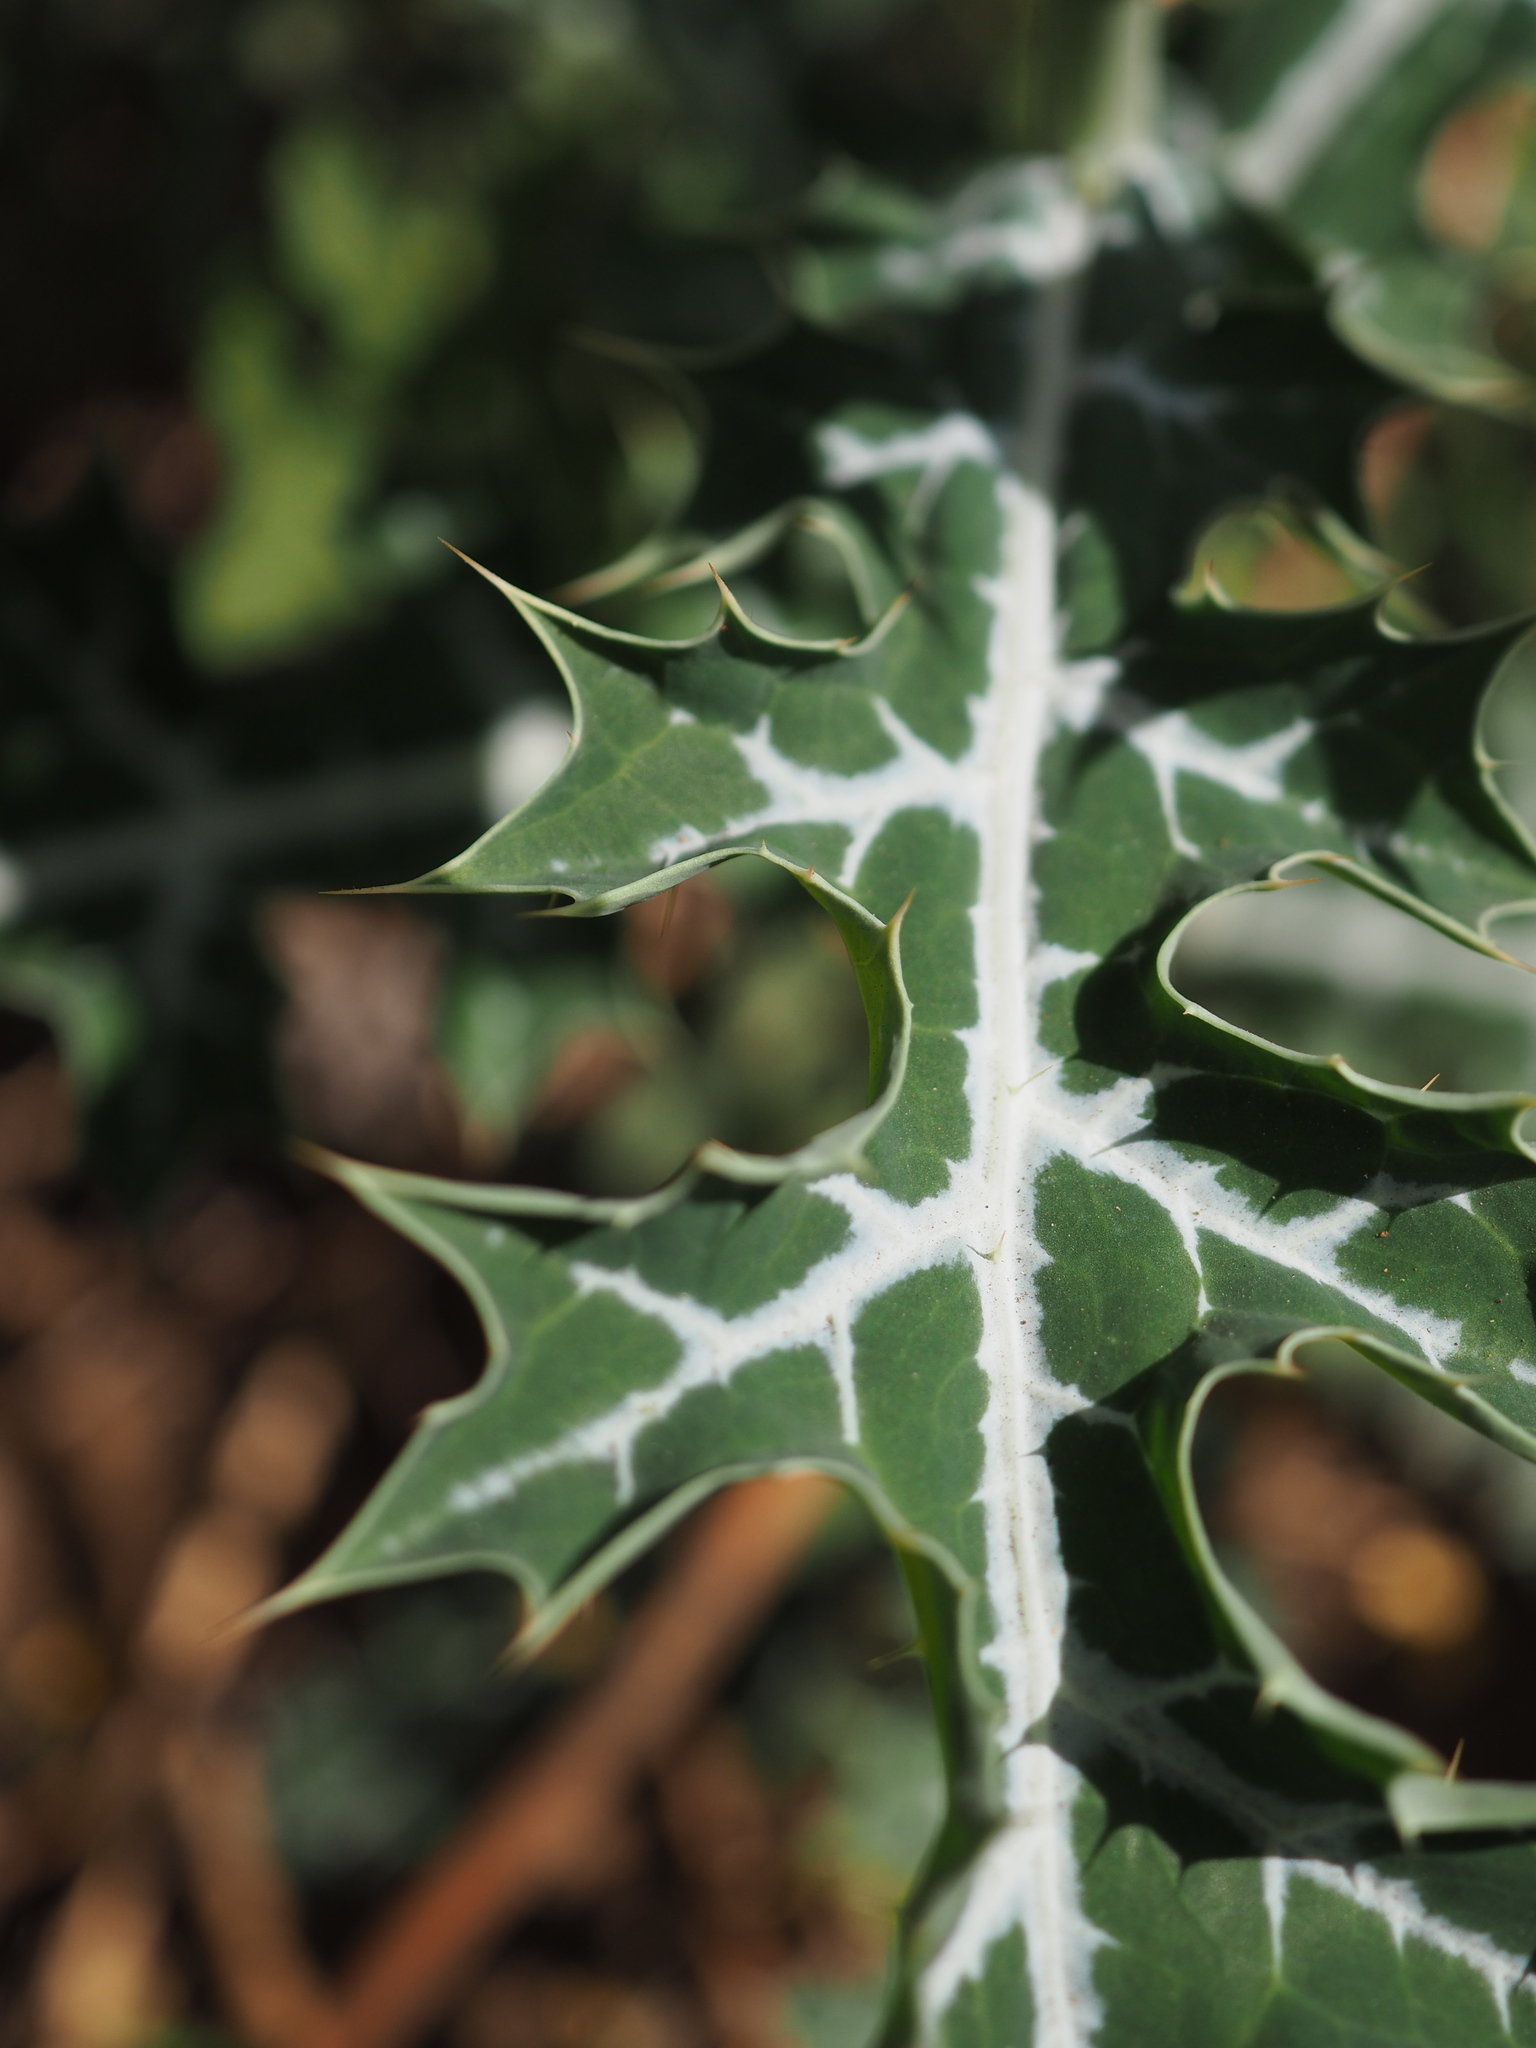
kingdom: Plantae
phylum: Tracheophyta
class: Magnoliopsida
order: Ranunculales
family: Papaveraceae
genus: Argemone
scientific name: Argemone mexicana
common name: Mexican poppy
